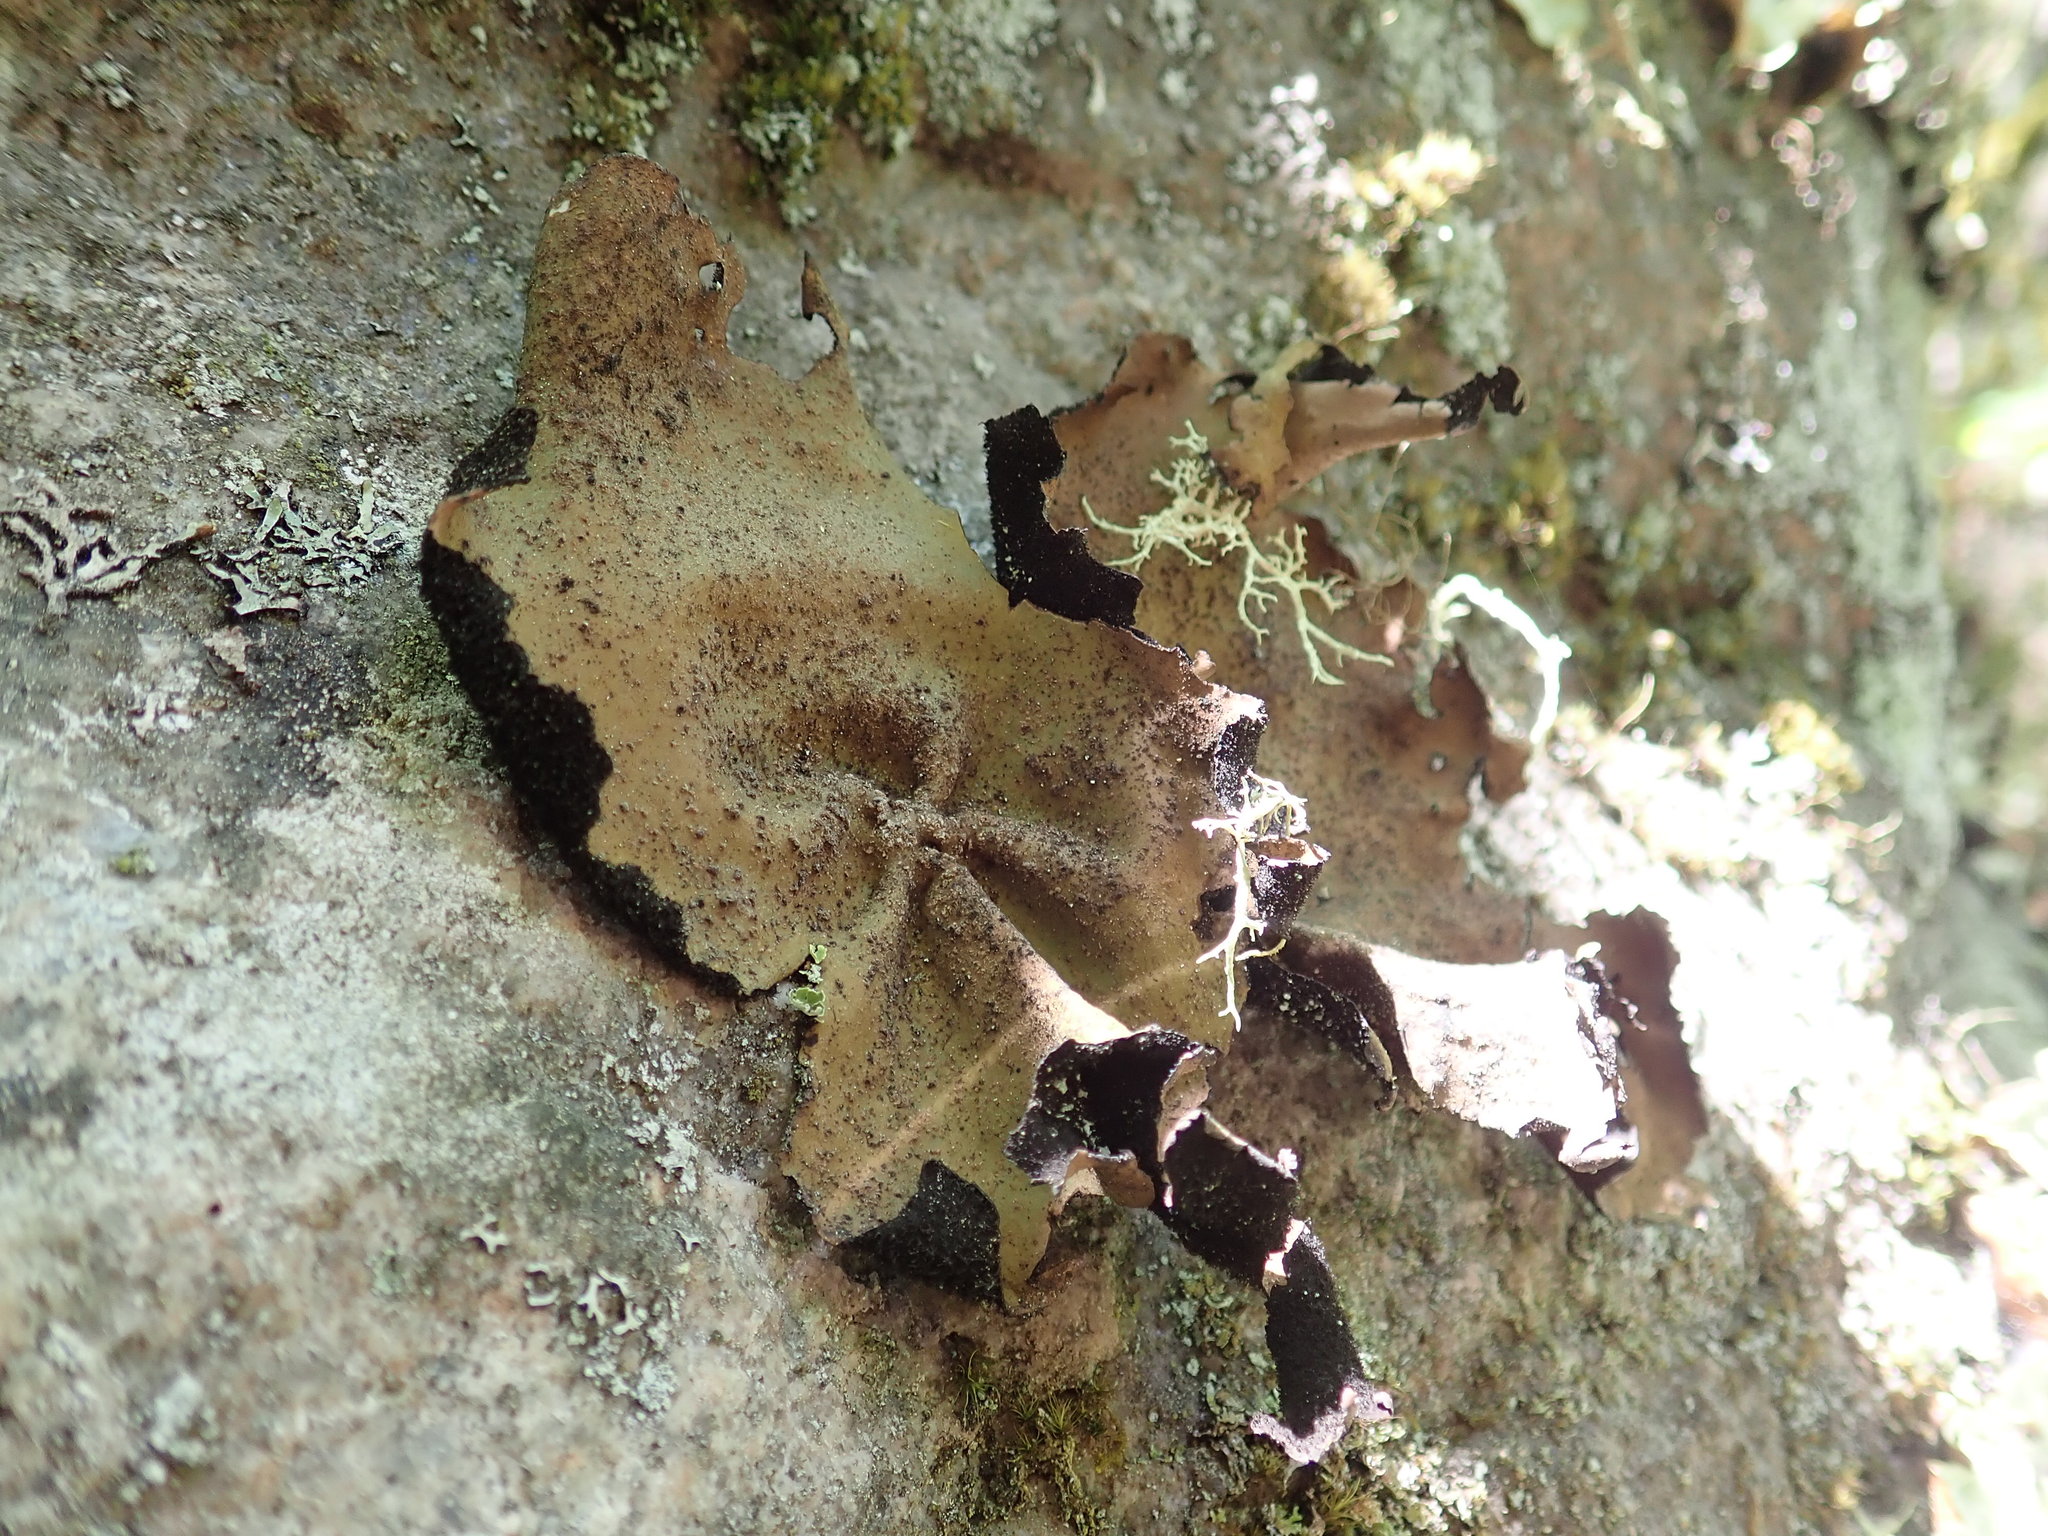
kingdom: Fungi
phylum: Ascomycota
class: Lecanoromycetes
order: Umbilicariales
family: Umbilicariaceae
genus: Umbilicaria
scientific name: Umbilicaria mammulata
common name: Smooth rock tripe
